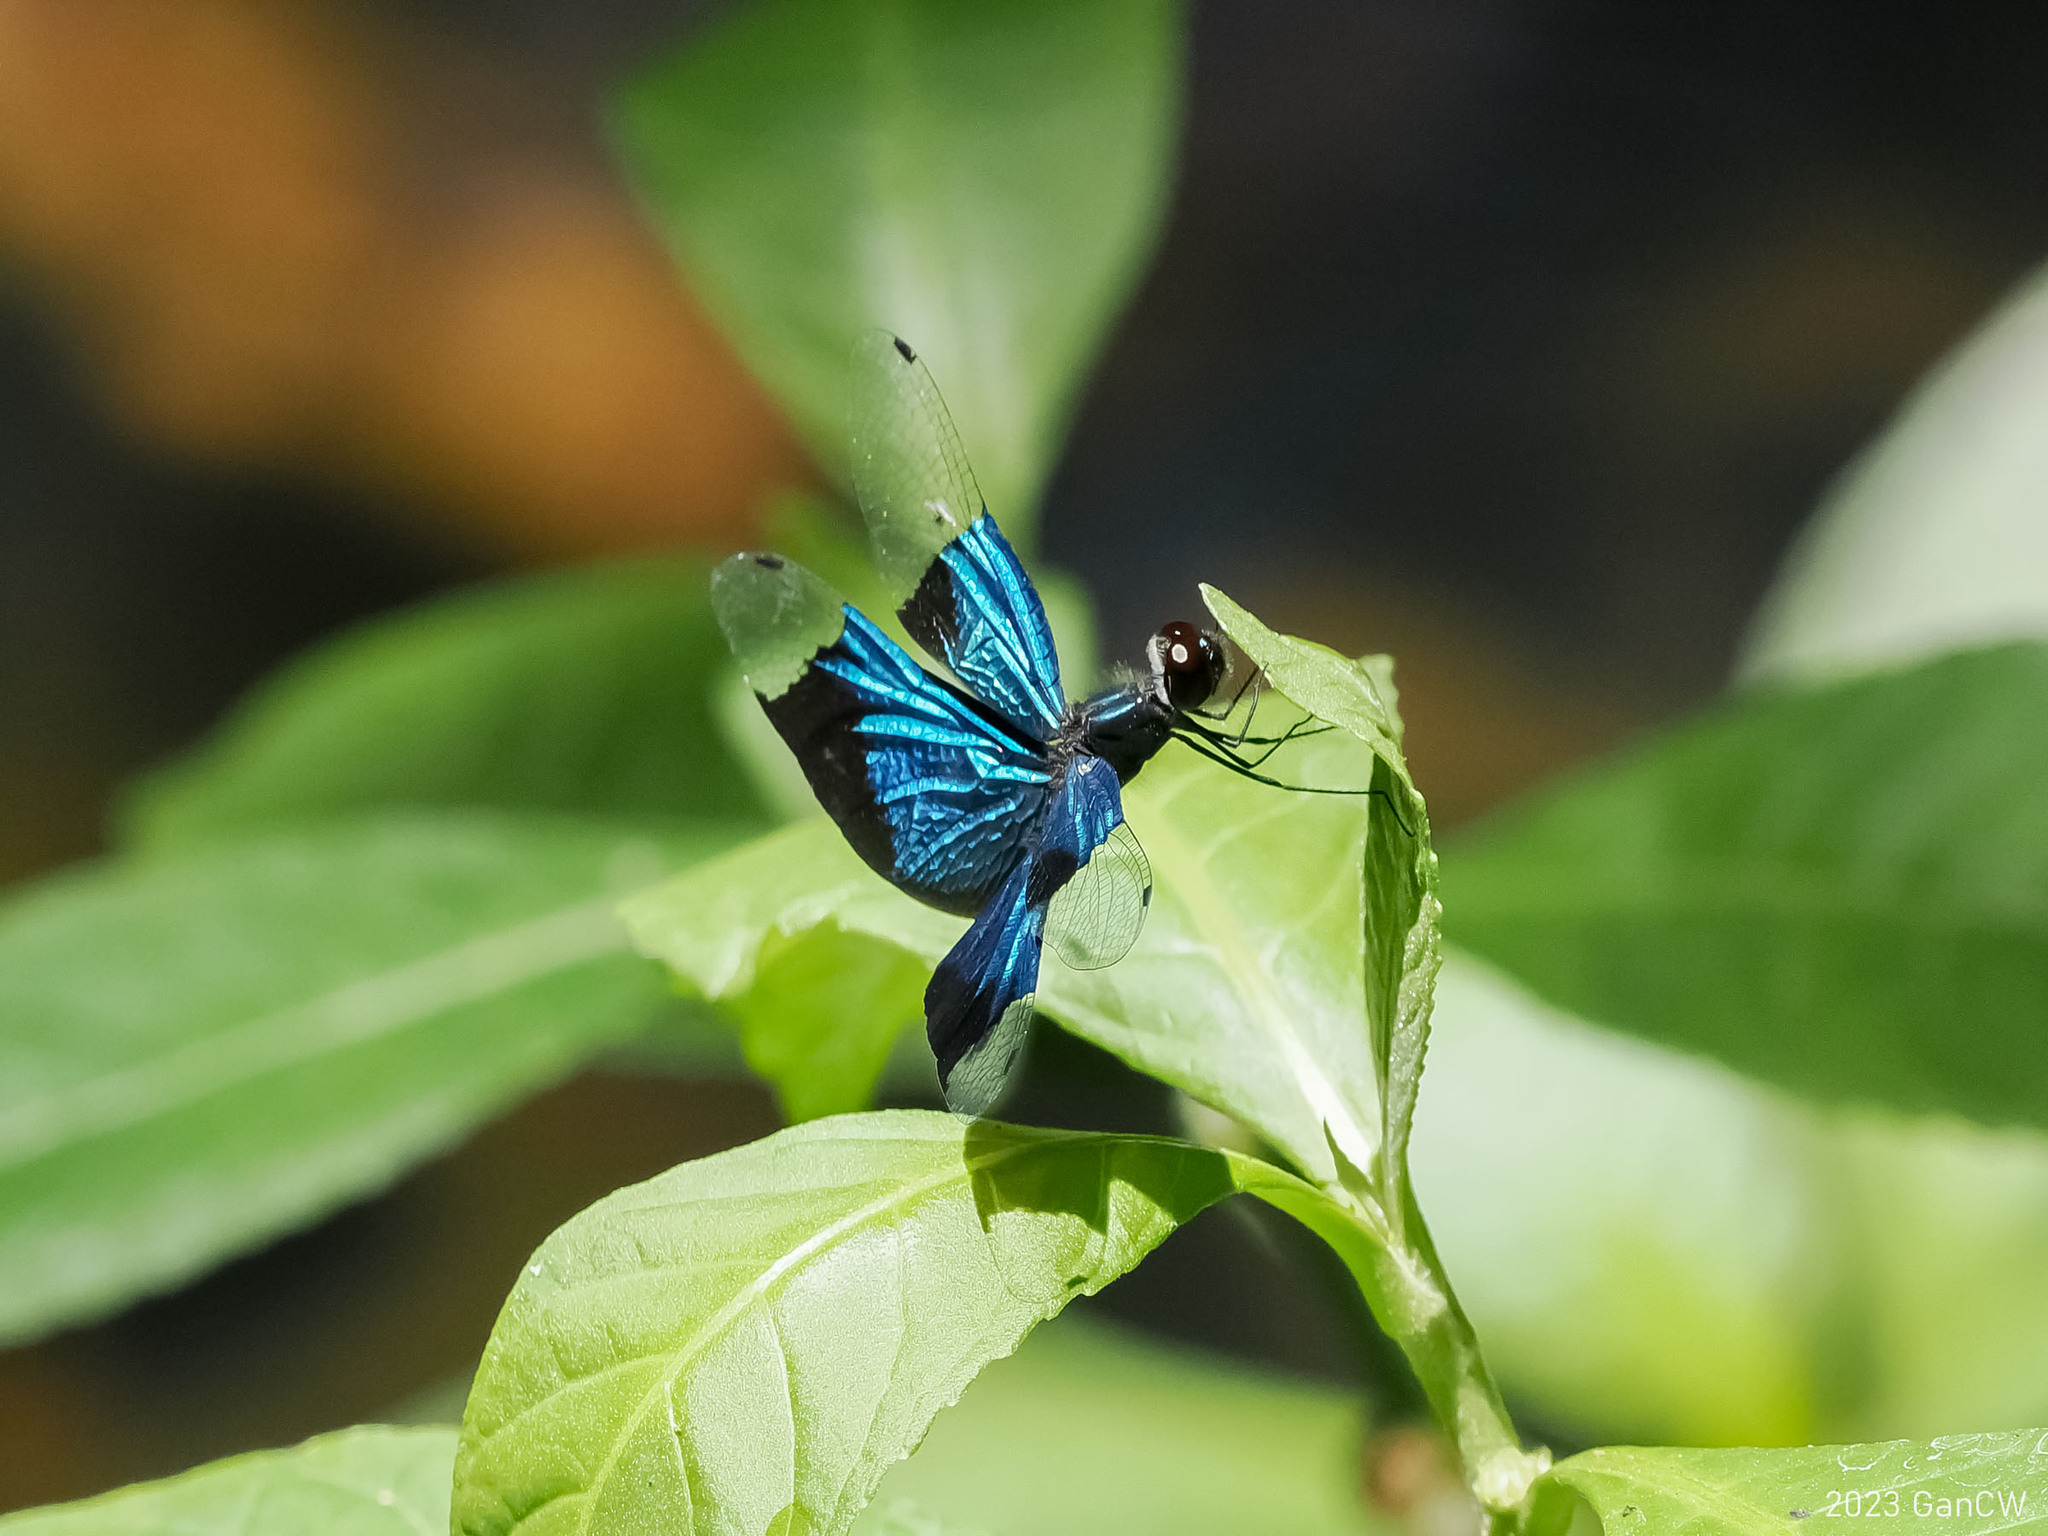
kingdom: Animalia
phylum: Arthropoda
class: Insecta
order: Odonata
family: Libellulidae
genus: Rhyothemis
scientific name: Rhyothemis resplendens
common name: Jewel flutterer
